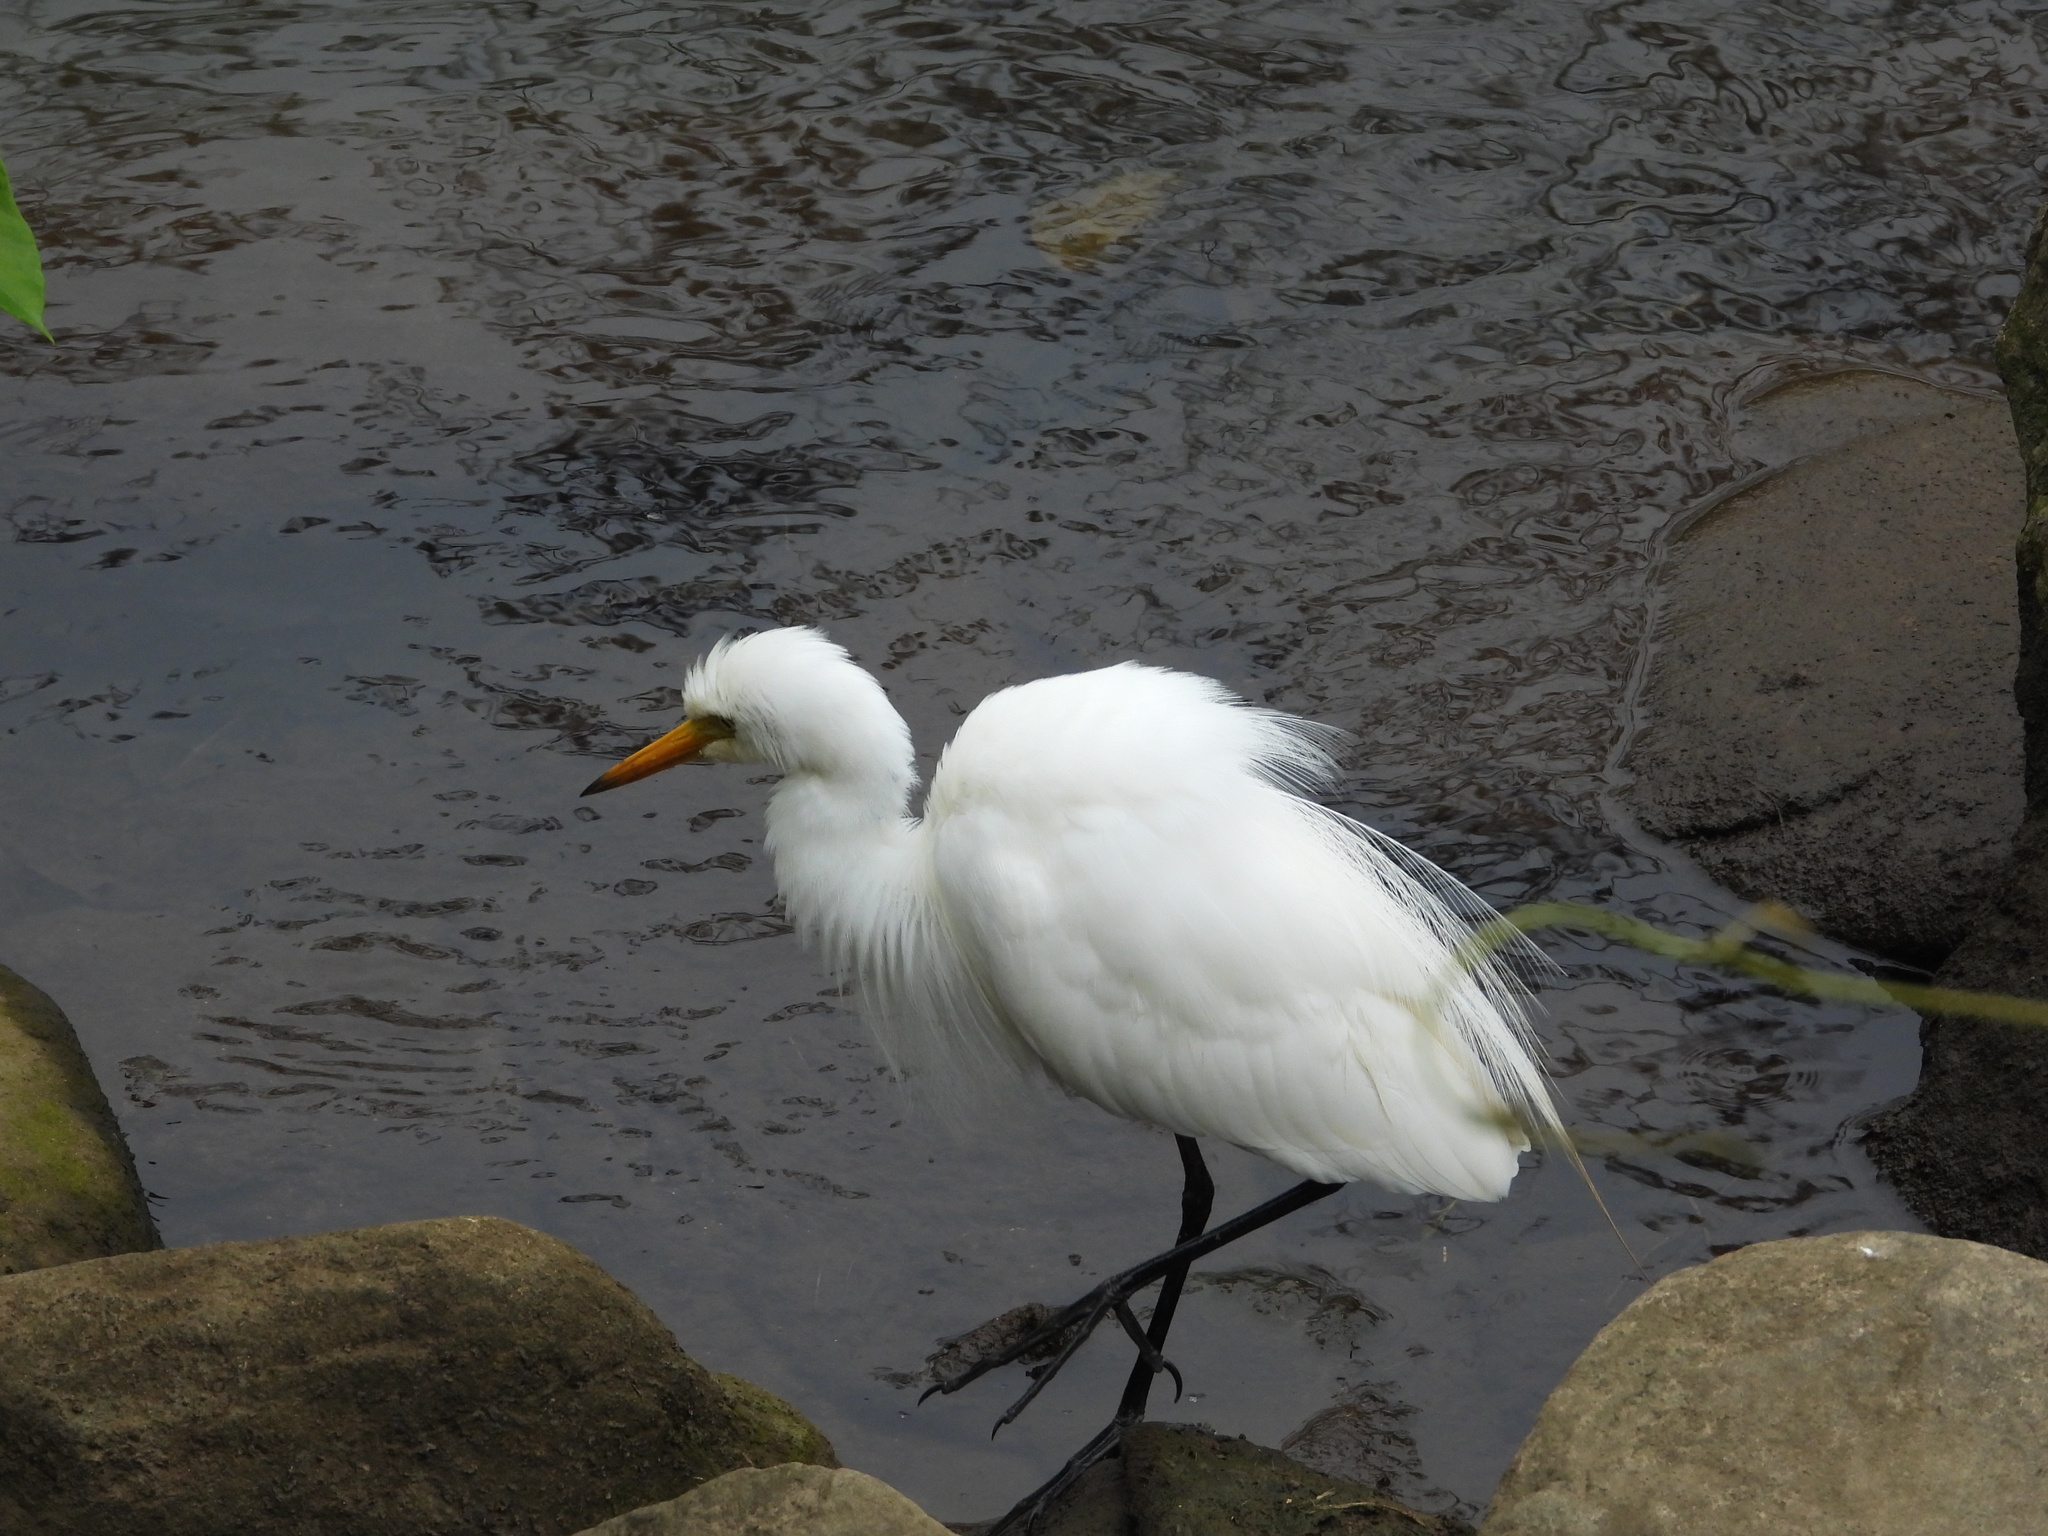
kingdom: Animalia
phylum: Chordata
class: Aves
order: Pelecaniformes
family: Ardeidae
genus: Egretta
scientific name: Egretta intermedia
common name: Intermediate egret
